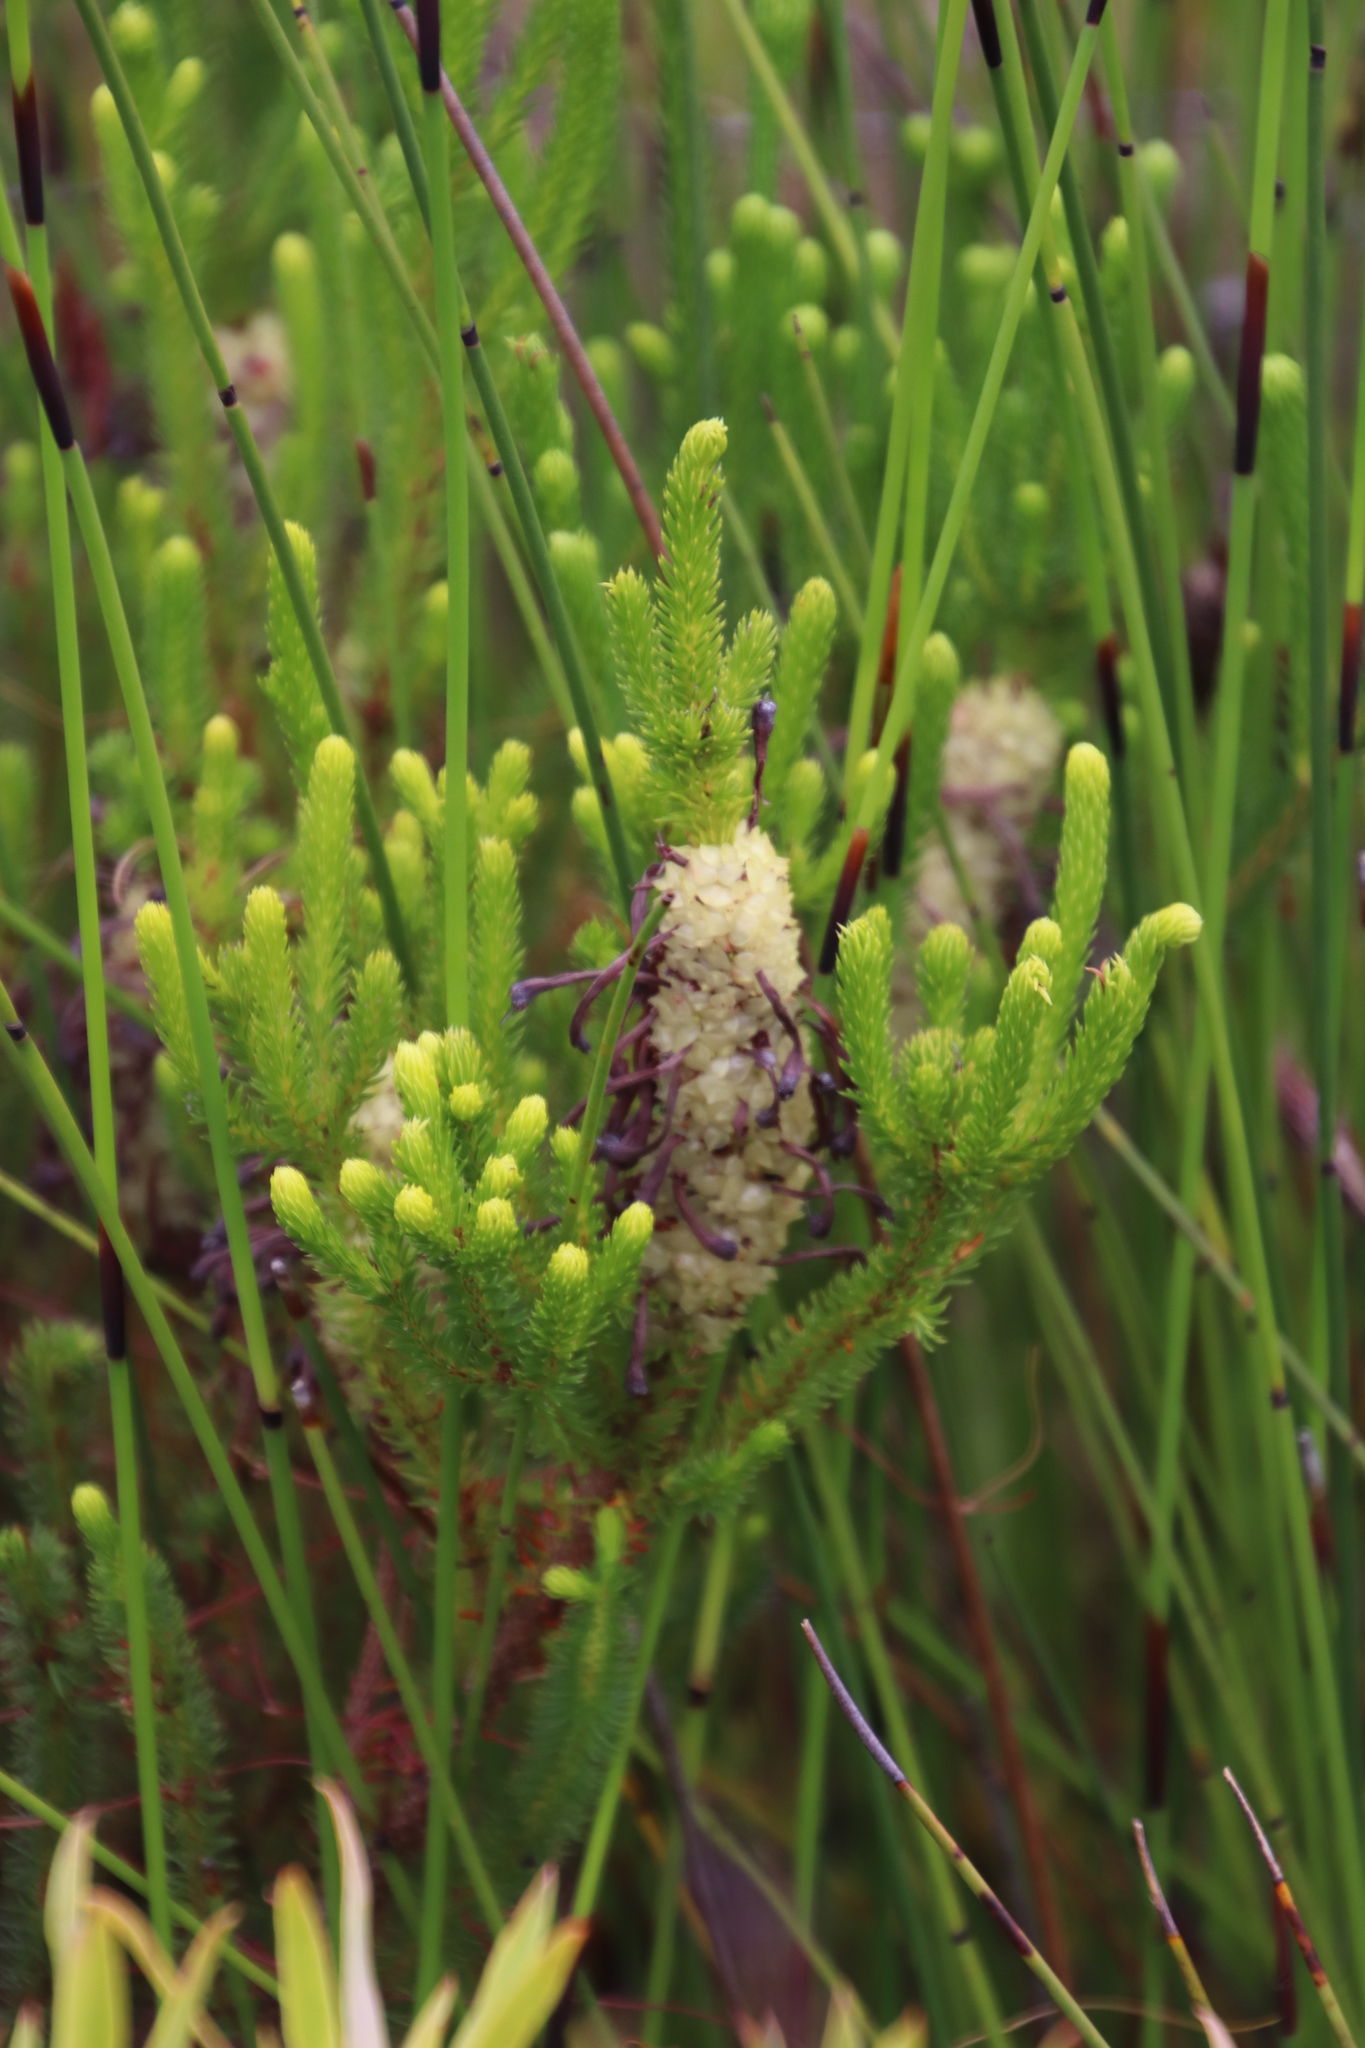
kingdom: Plantae
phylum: Tracheophyta
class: Magnoliopsida
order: Ericales
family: Ericaceae
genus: Erica
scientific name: Erica sessiliflora
